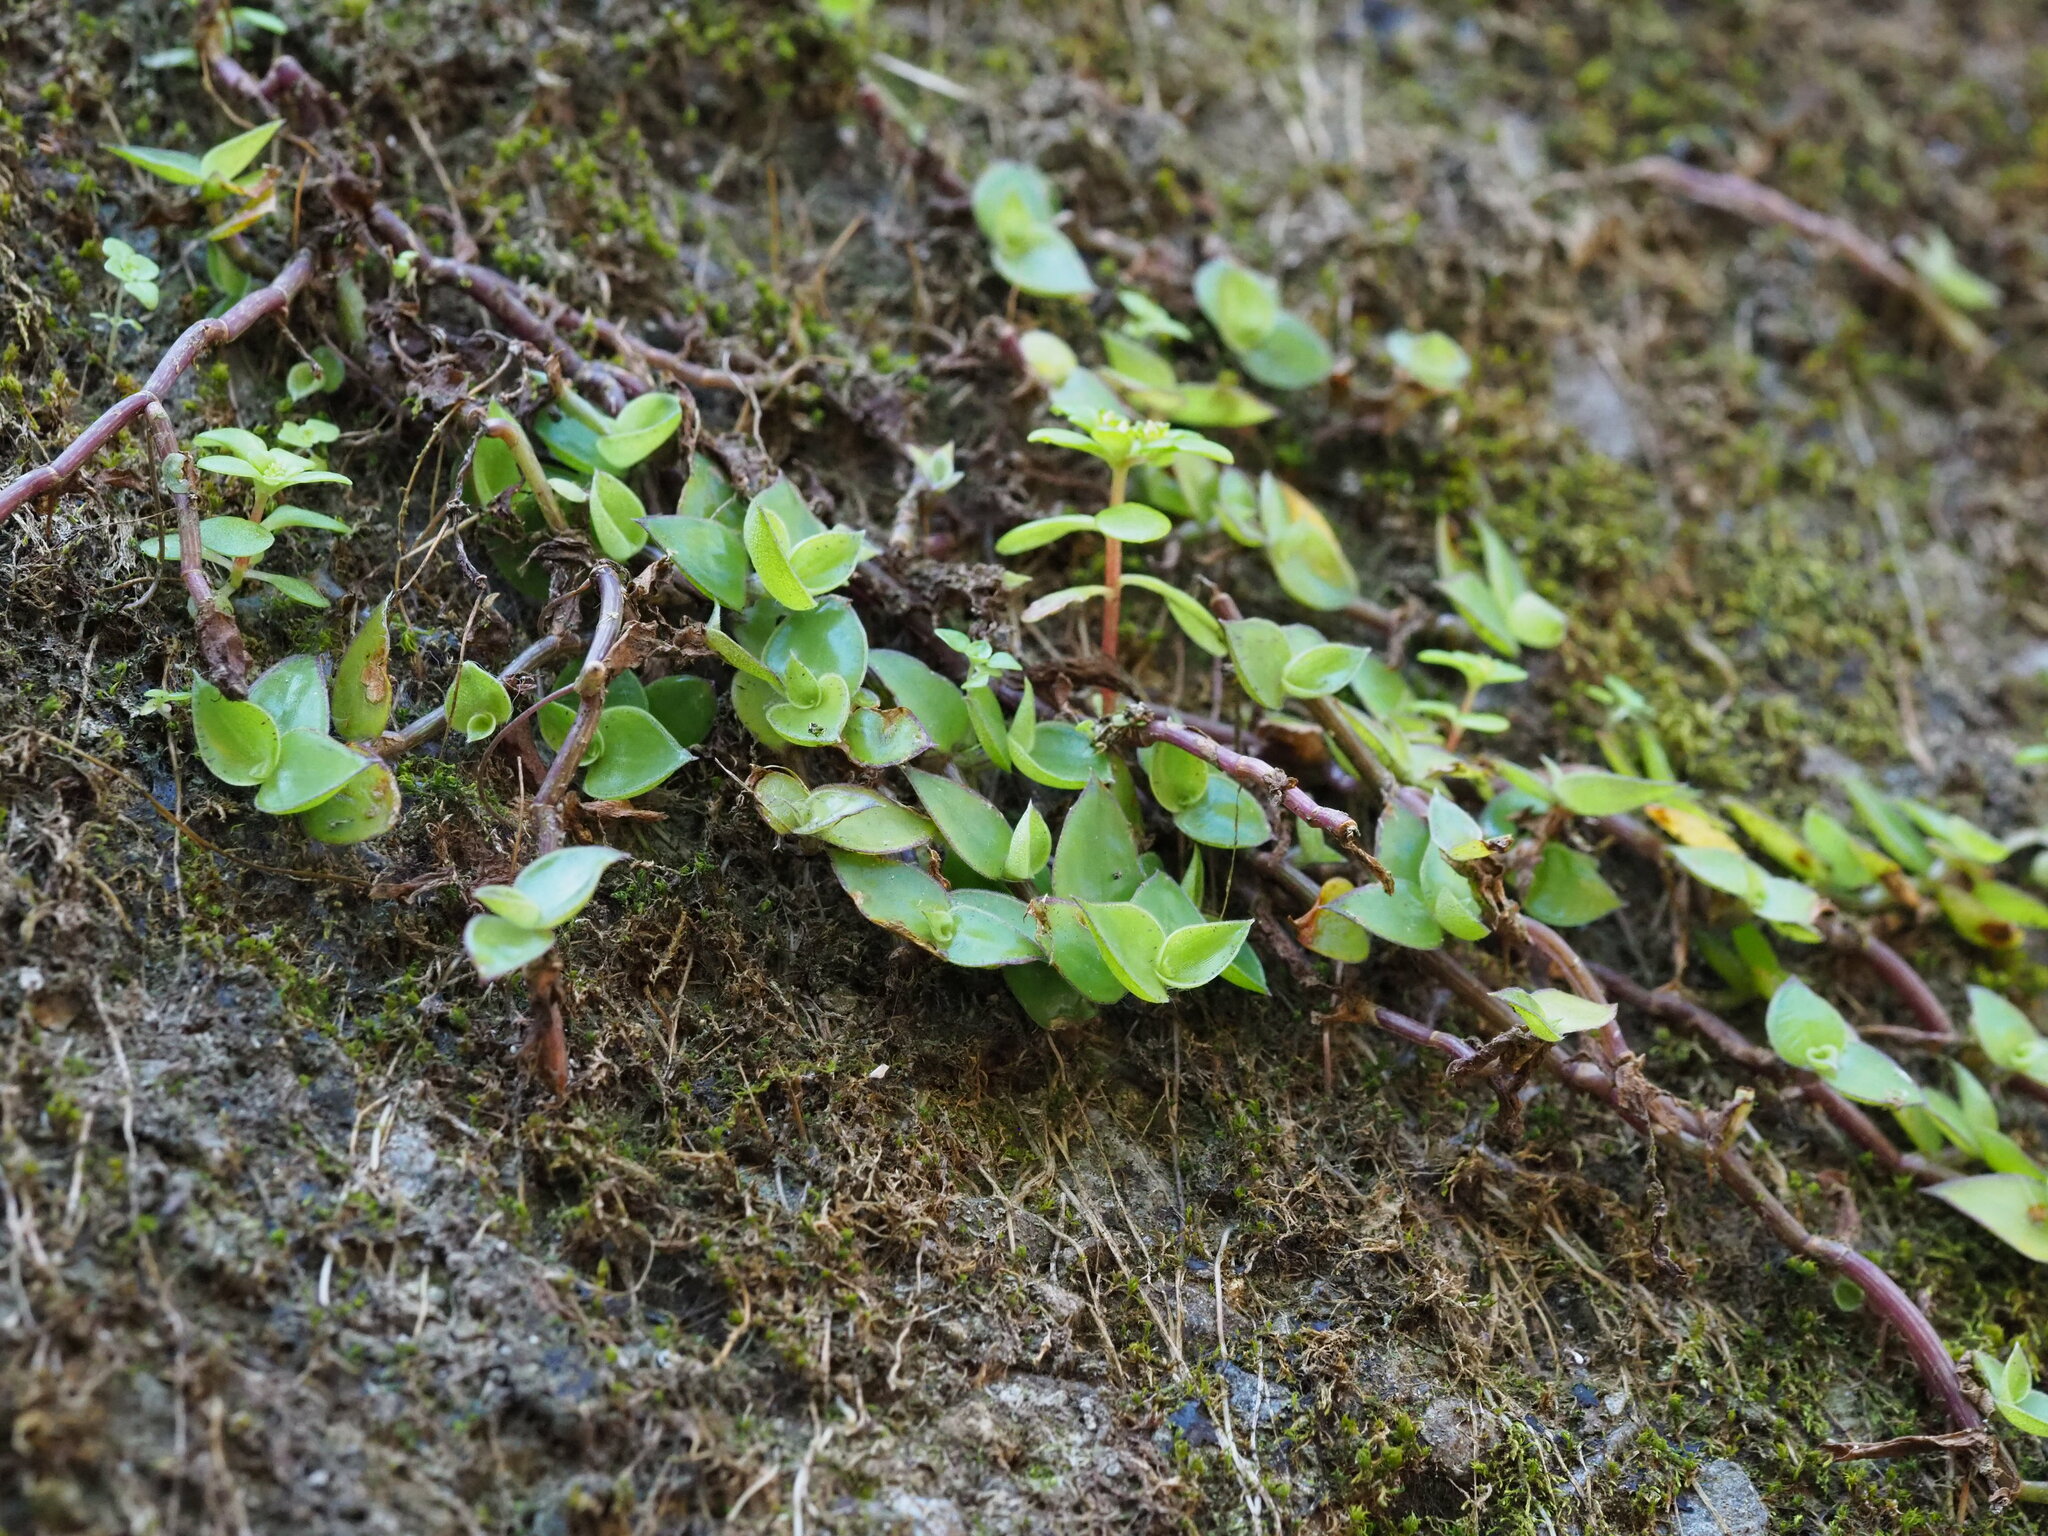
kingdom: Plantae
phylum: Tracheophyta
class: Liliopsida
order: Commelinales
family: Commelinaceae
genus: Callisia
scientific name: Callisia repens
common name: Creeping inchplant
